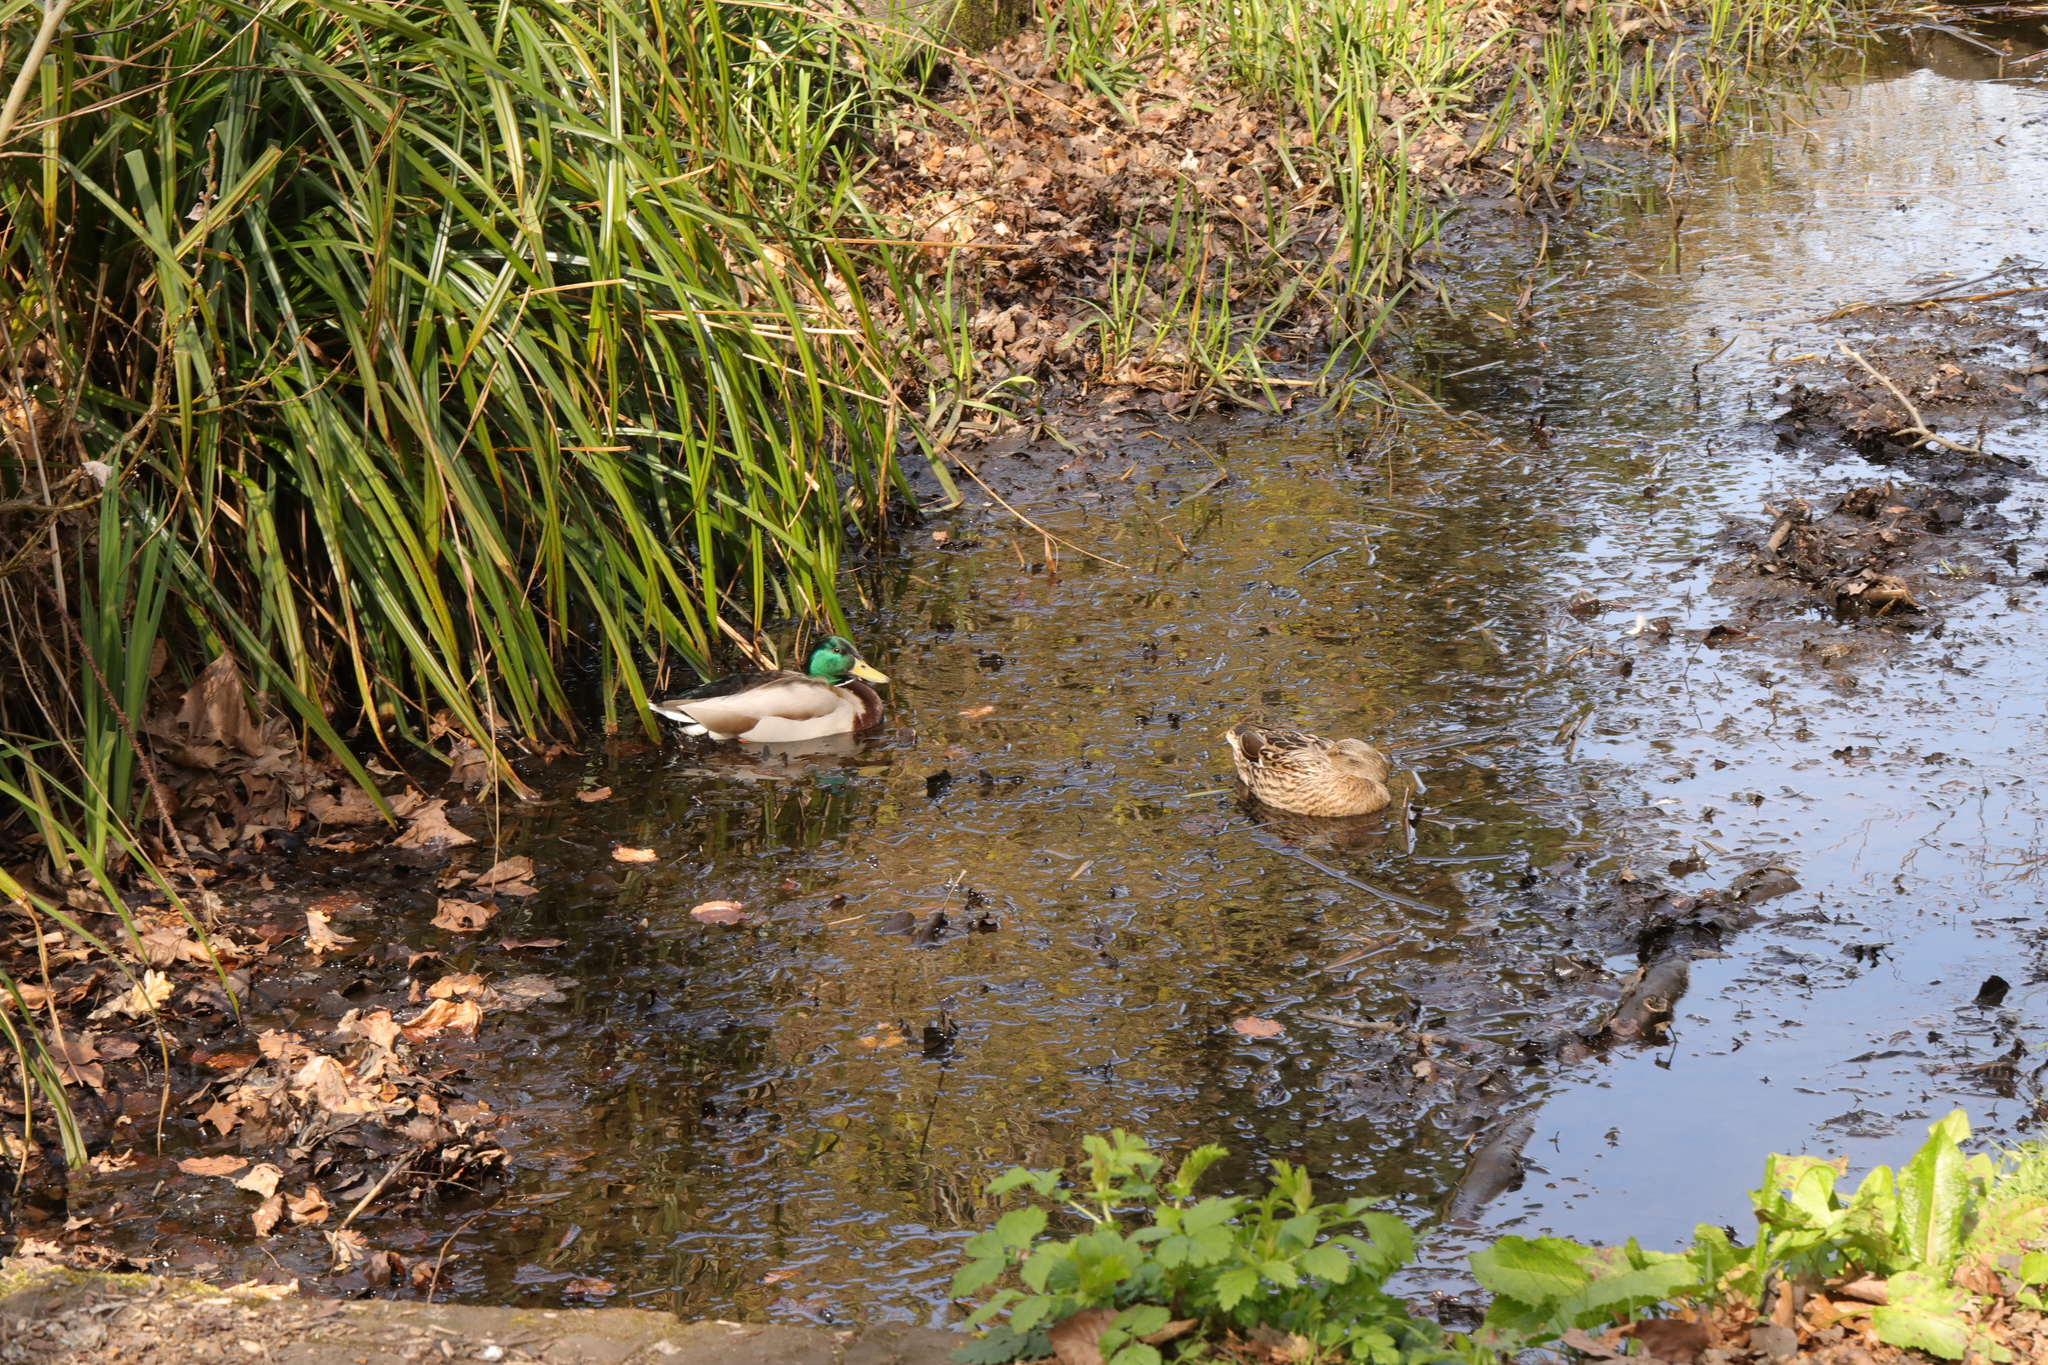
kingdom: Animalia
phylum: Chordata
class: Aves
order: Anseriformes
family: Anatidae
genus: Anas
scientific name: Anas platyrhynchos
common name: Mallard
